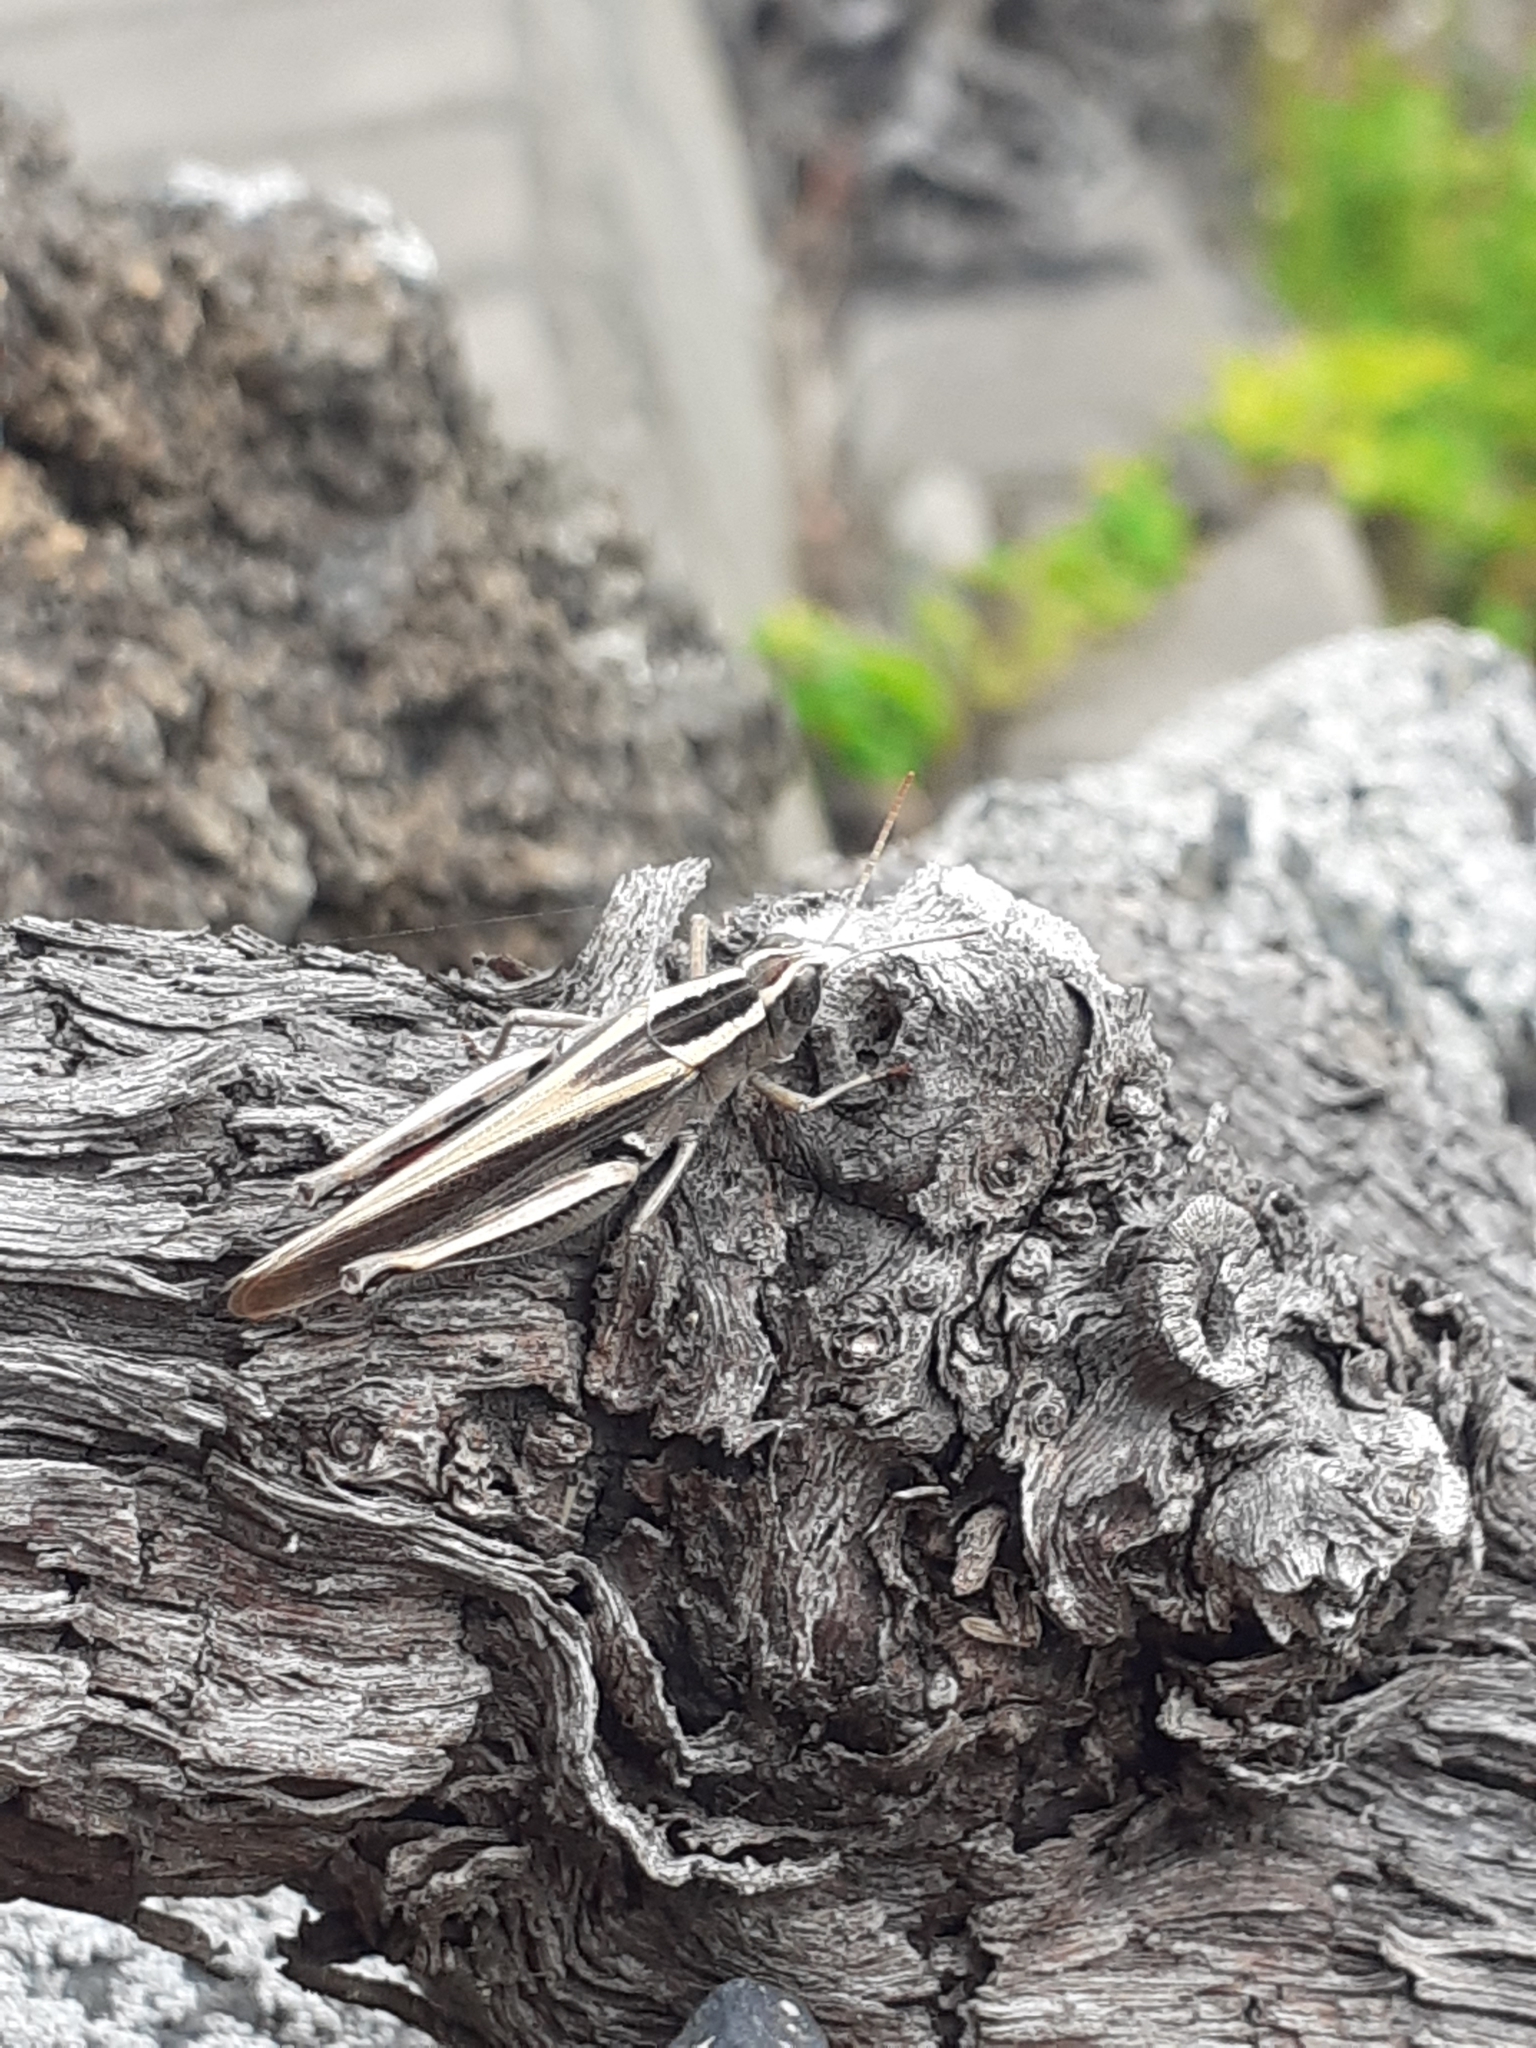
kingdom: Animalia
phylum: Arthropoda
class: Insecta
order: Orthoptera
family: Acrididae
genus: Calliptamus
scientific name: Calliptamus plebeius
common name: Canarian pincer grasshopper
